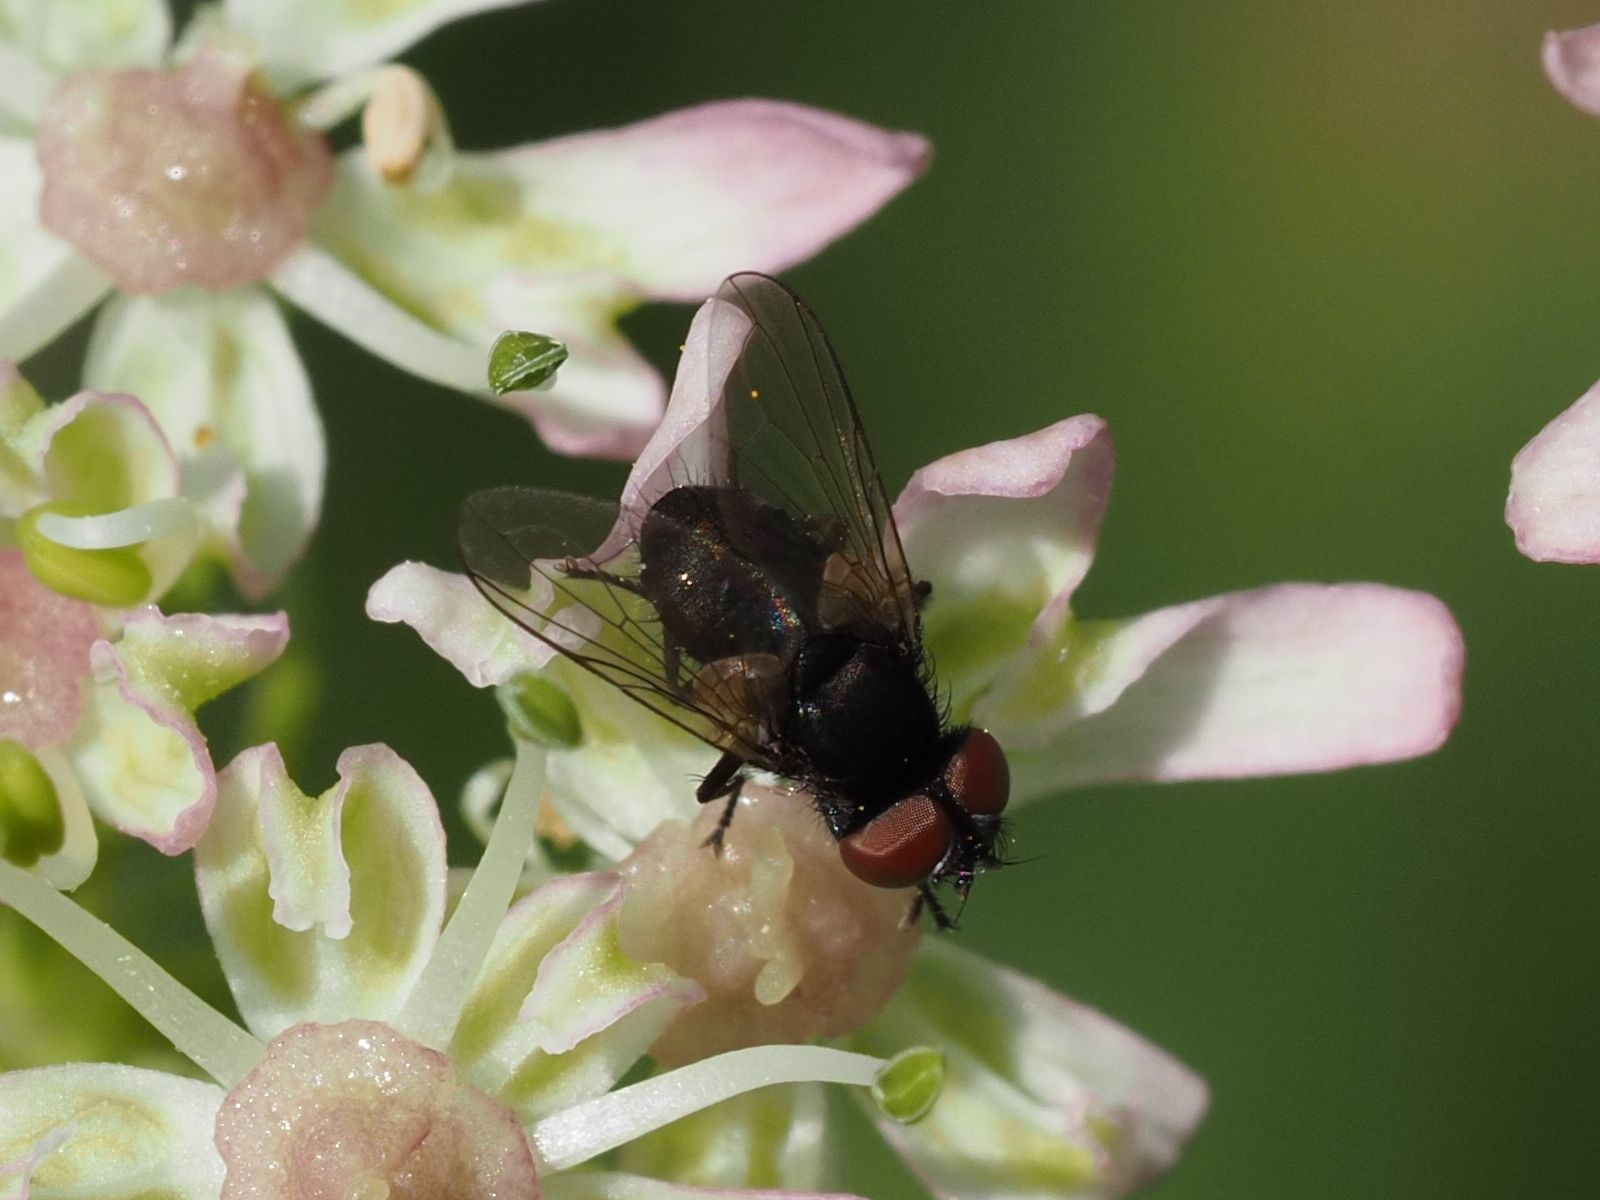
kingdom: Animalia
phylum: Arthropoda
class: Insecta
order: Diptera
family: Tachinidae
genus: Phasia
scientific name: Phasia barbifrons
